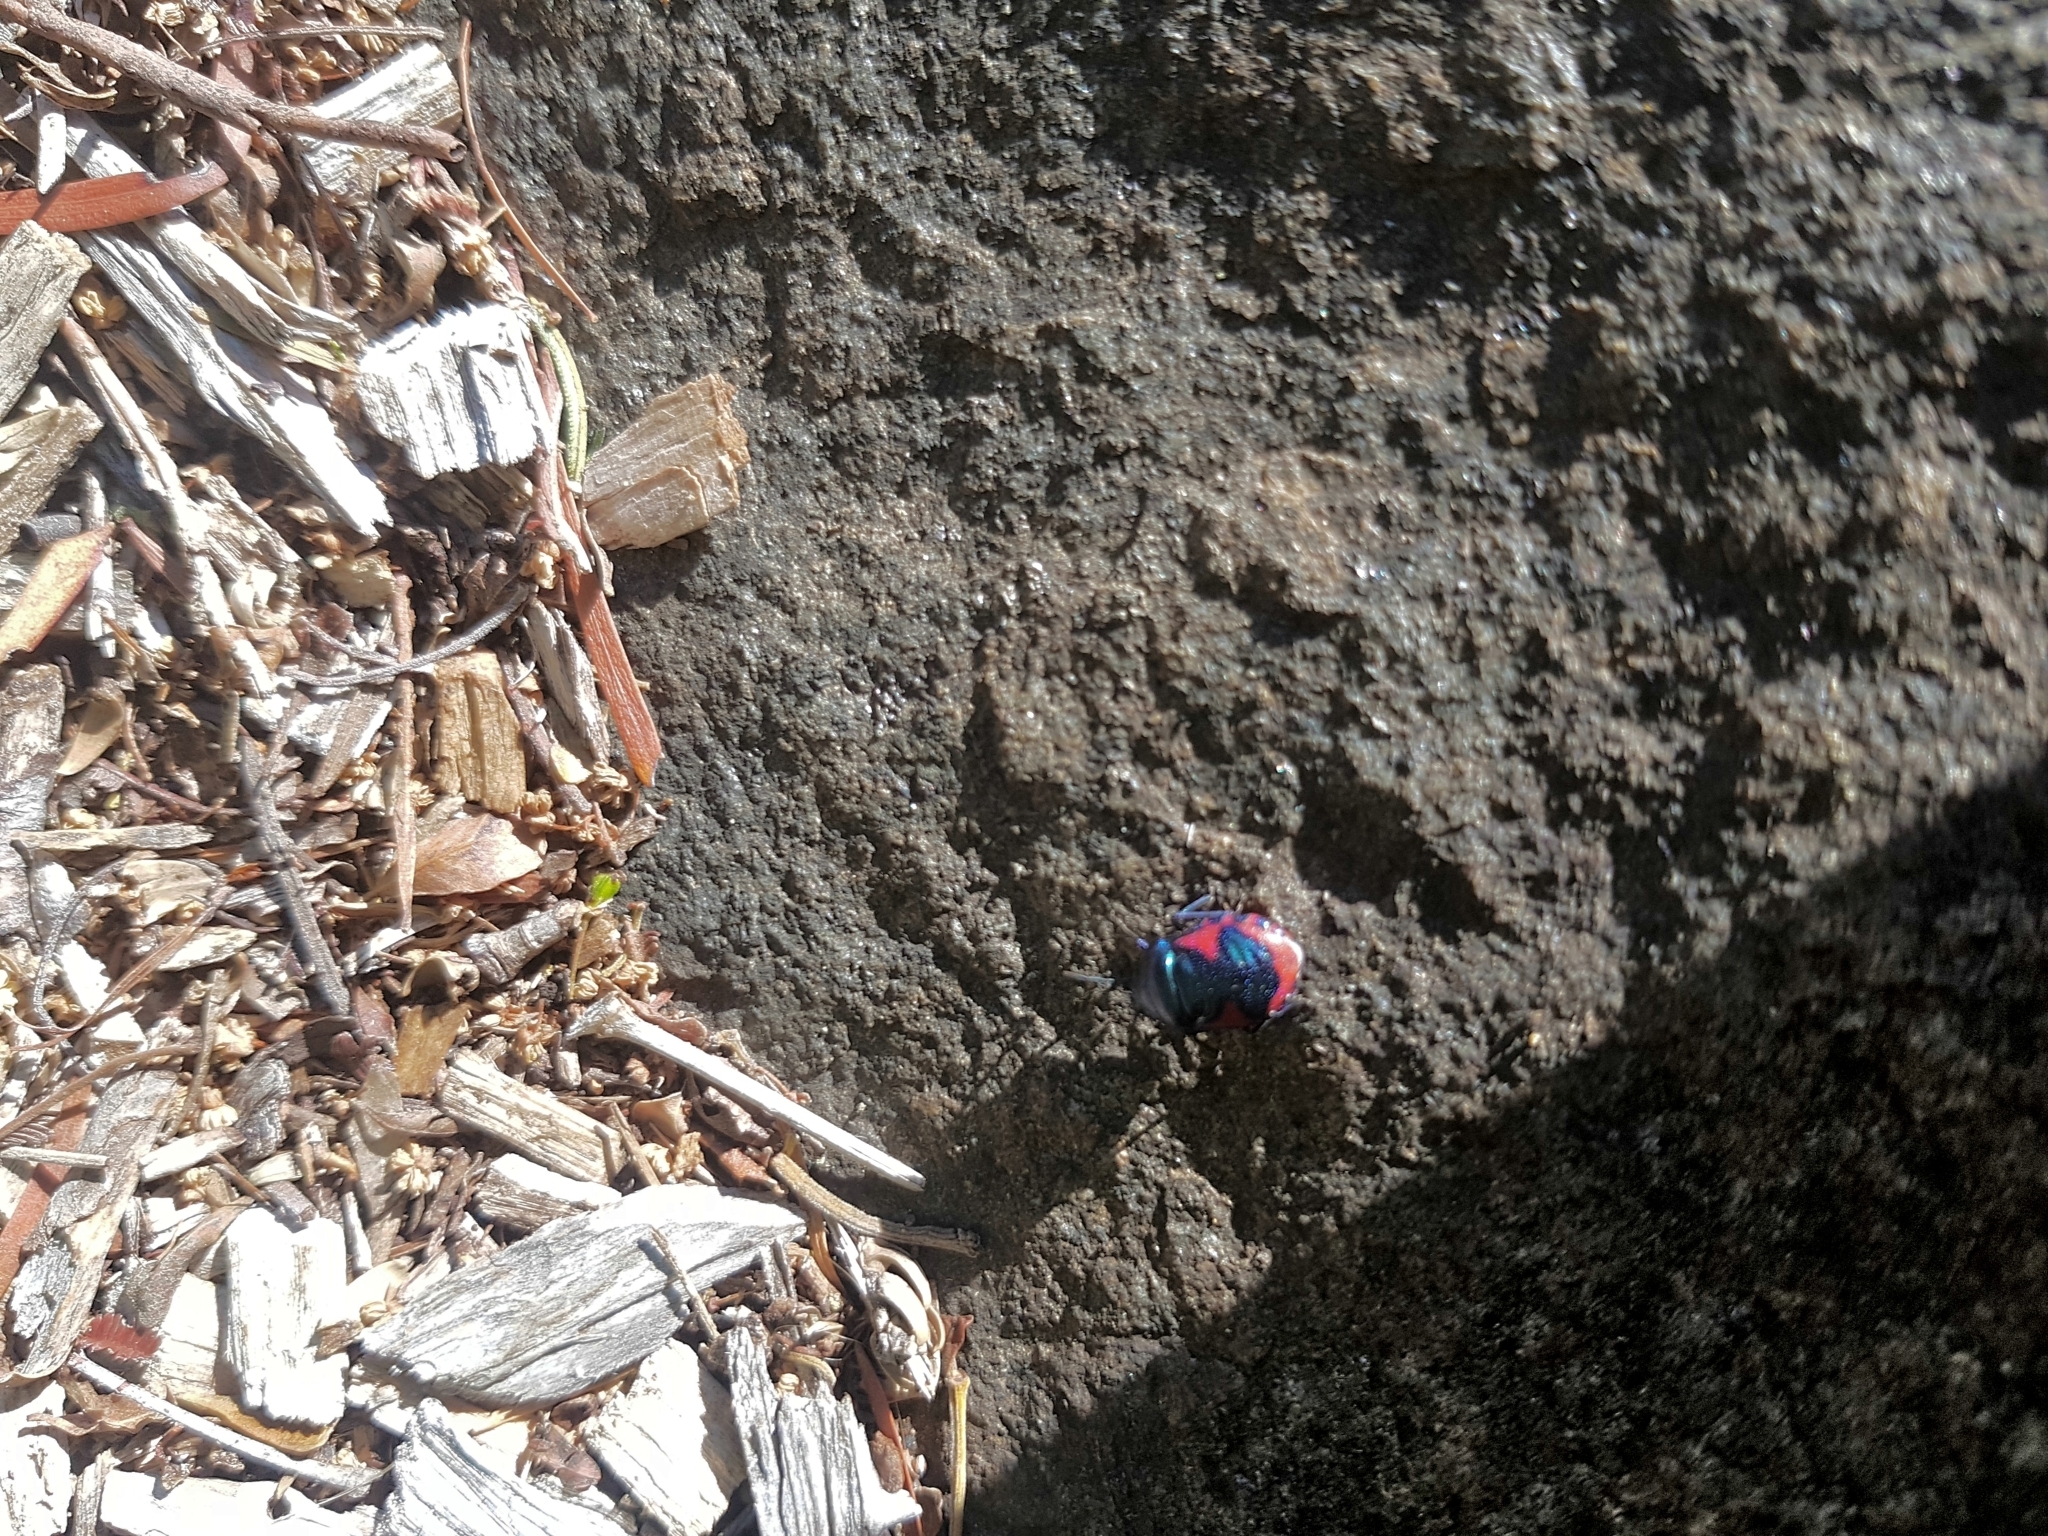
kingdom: Animalia
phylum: Arthropoda
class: Insecta
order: Hemiptera
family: Scutelleridae
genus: Choerocoris
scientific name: Choerocoris paganus
